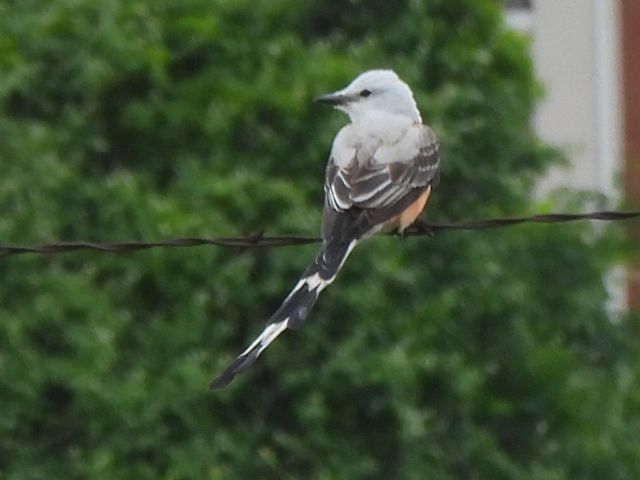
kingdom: Animalia
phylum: Chordata
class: Aves
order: Passeriformes
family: Tyrannidae
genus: Tyrannus
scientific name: Tyrannus forficatus
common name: Scissor-tailed flycatcher
